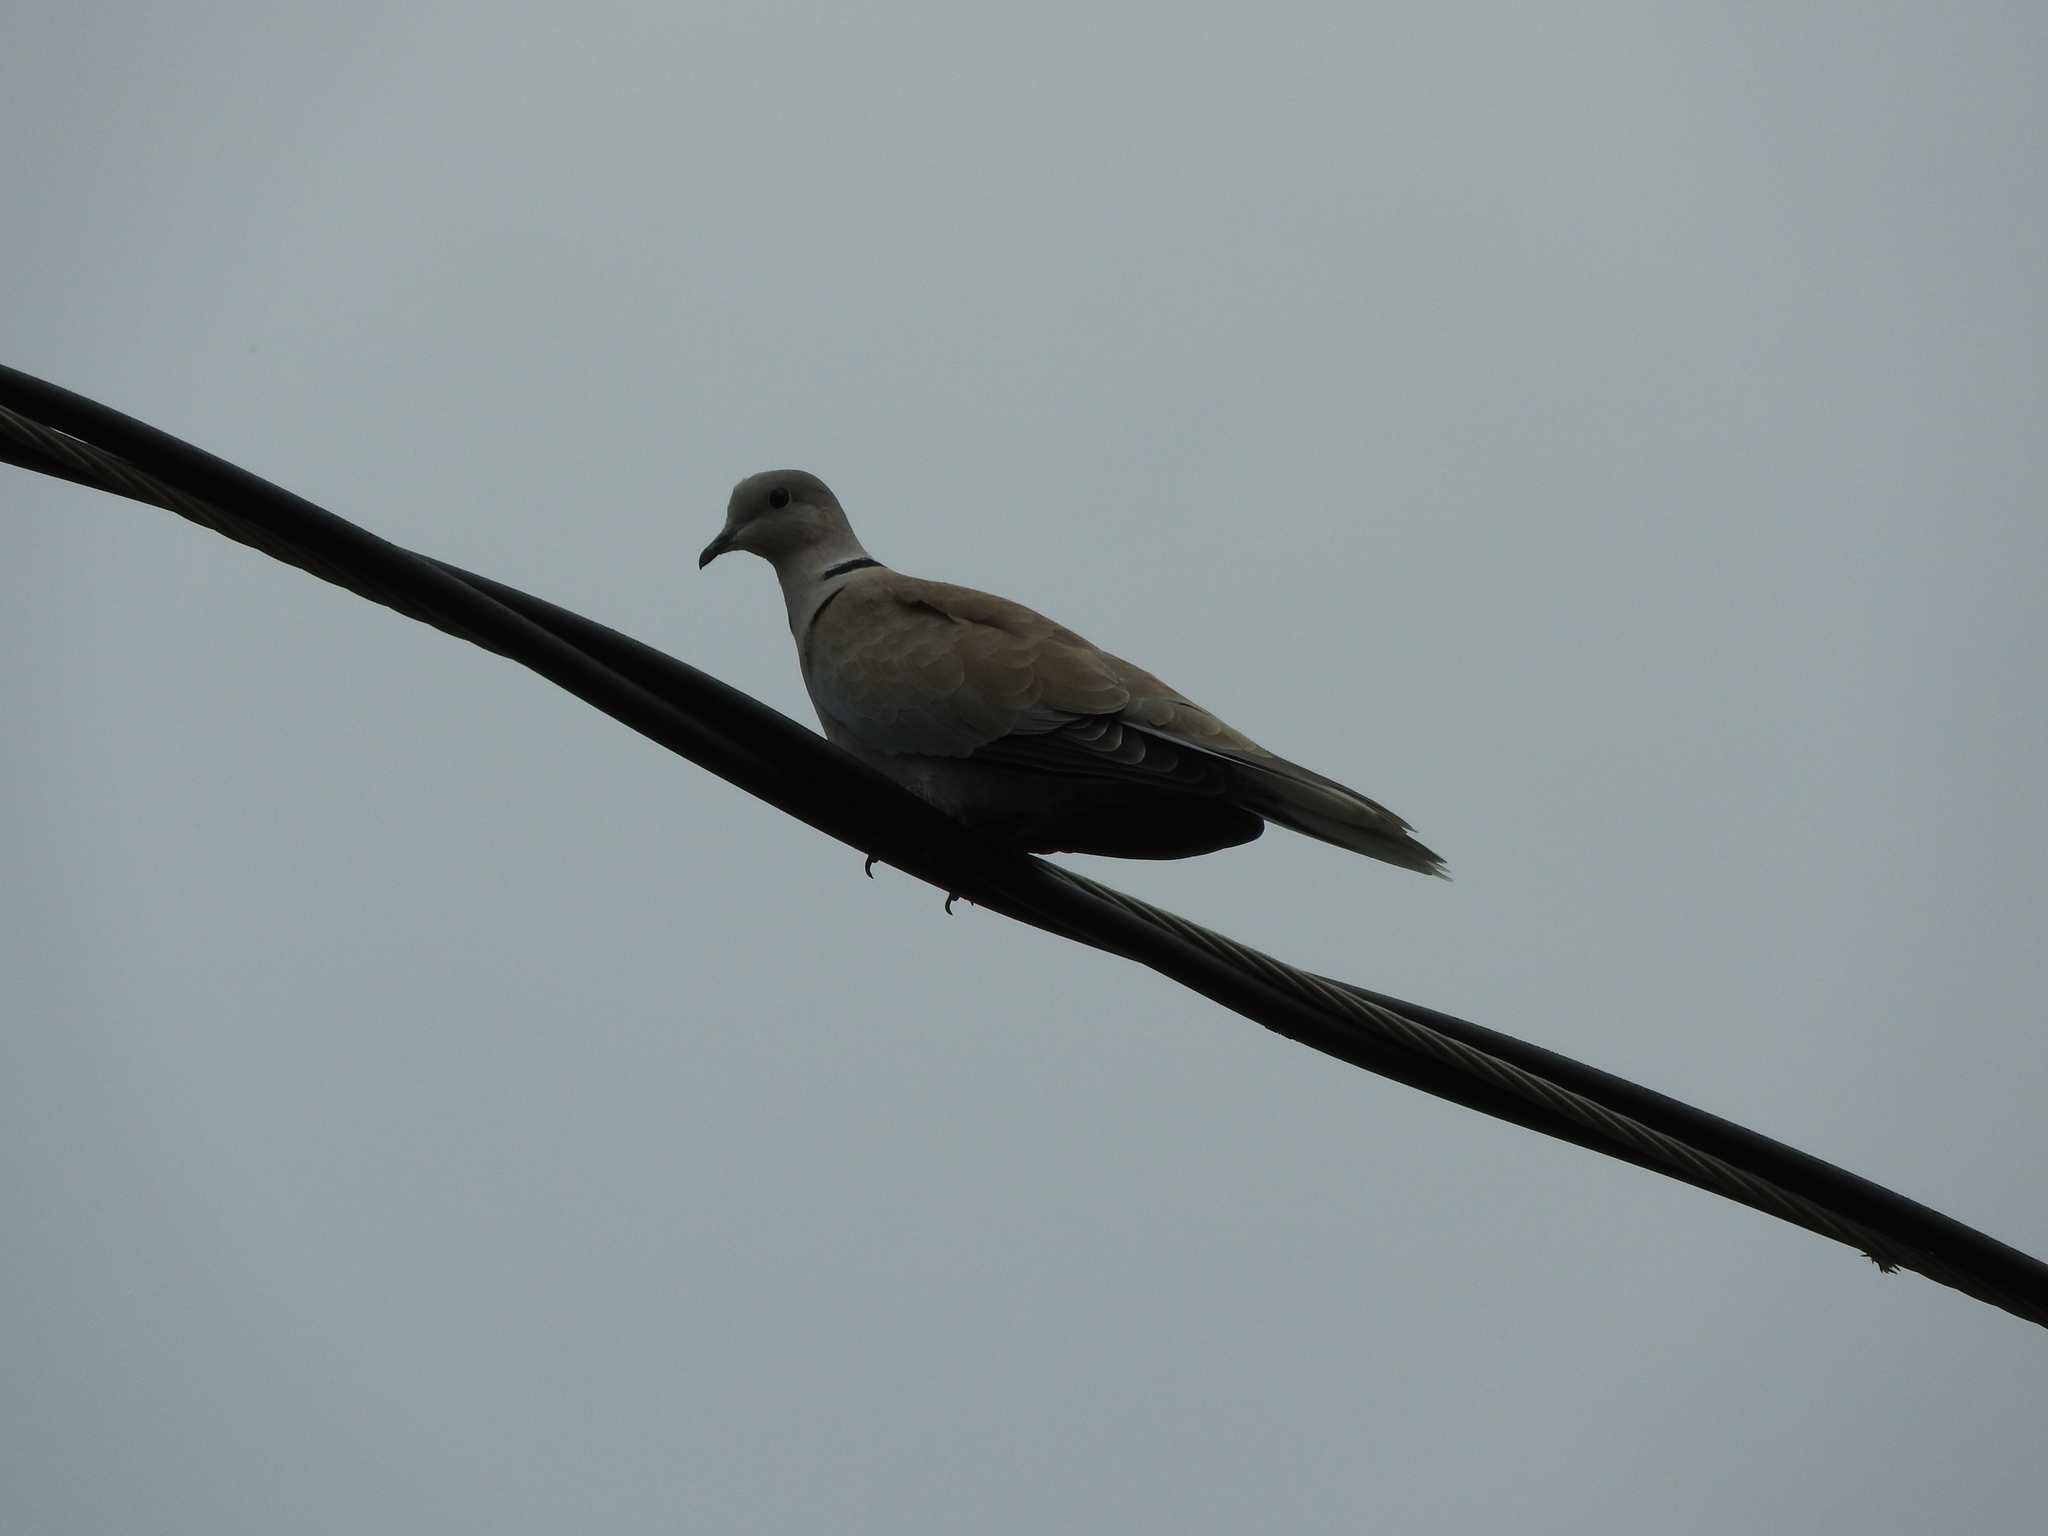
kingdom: Animalia
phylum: Chordata
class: Aves
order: Columbiformes
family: Columbidae
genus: Streptopelia
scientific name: Streptopelia decaocto
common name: Eurasian collared dove
